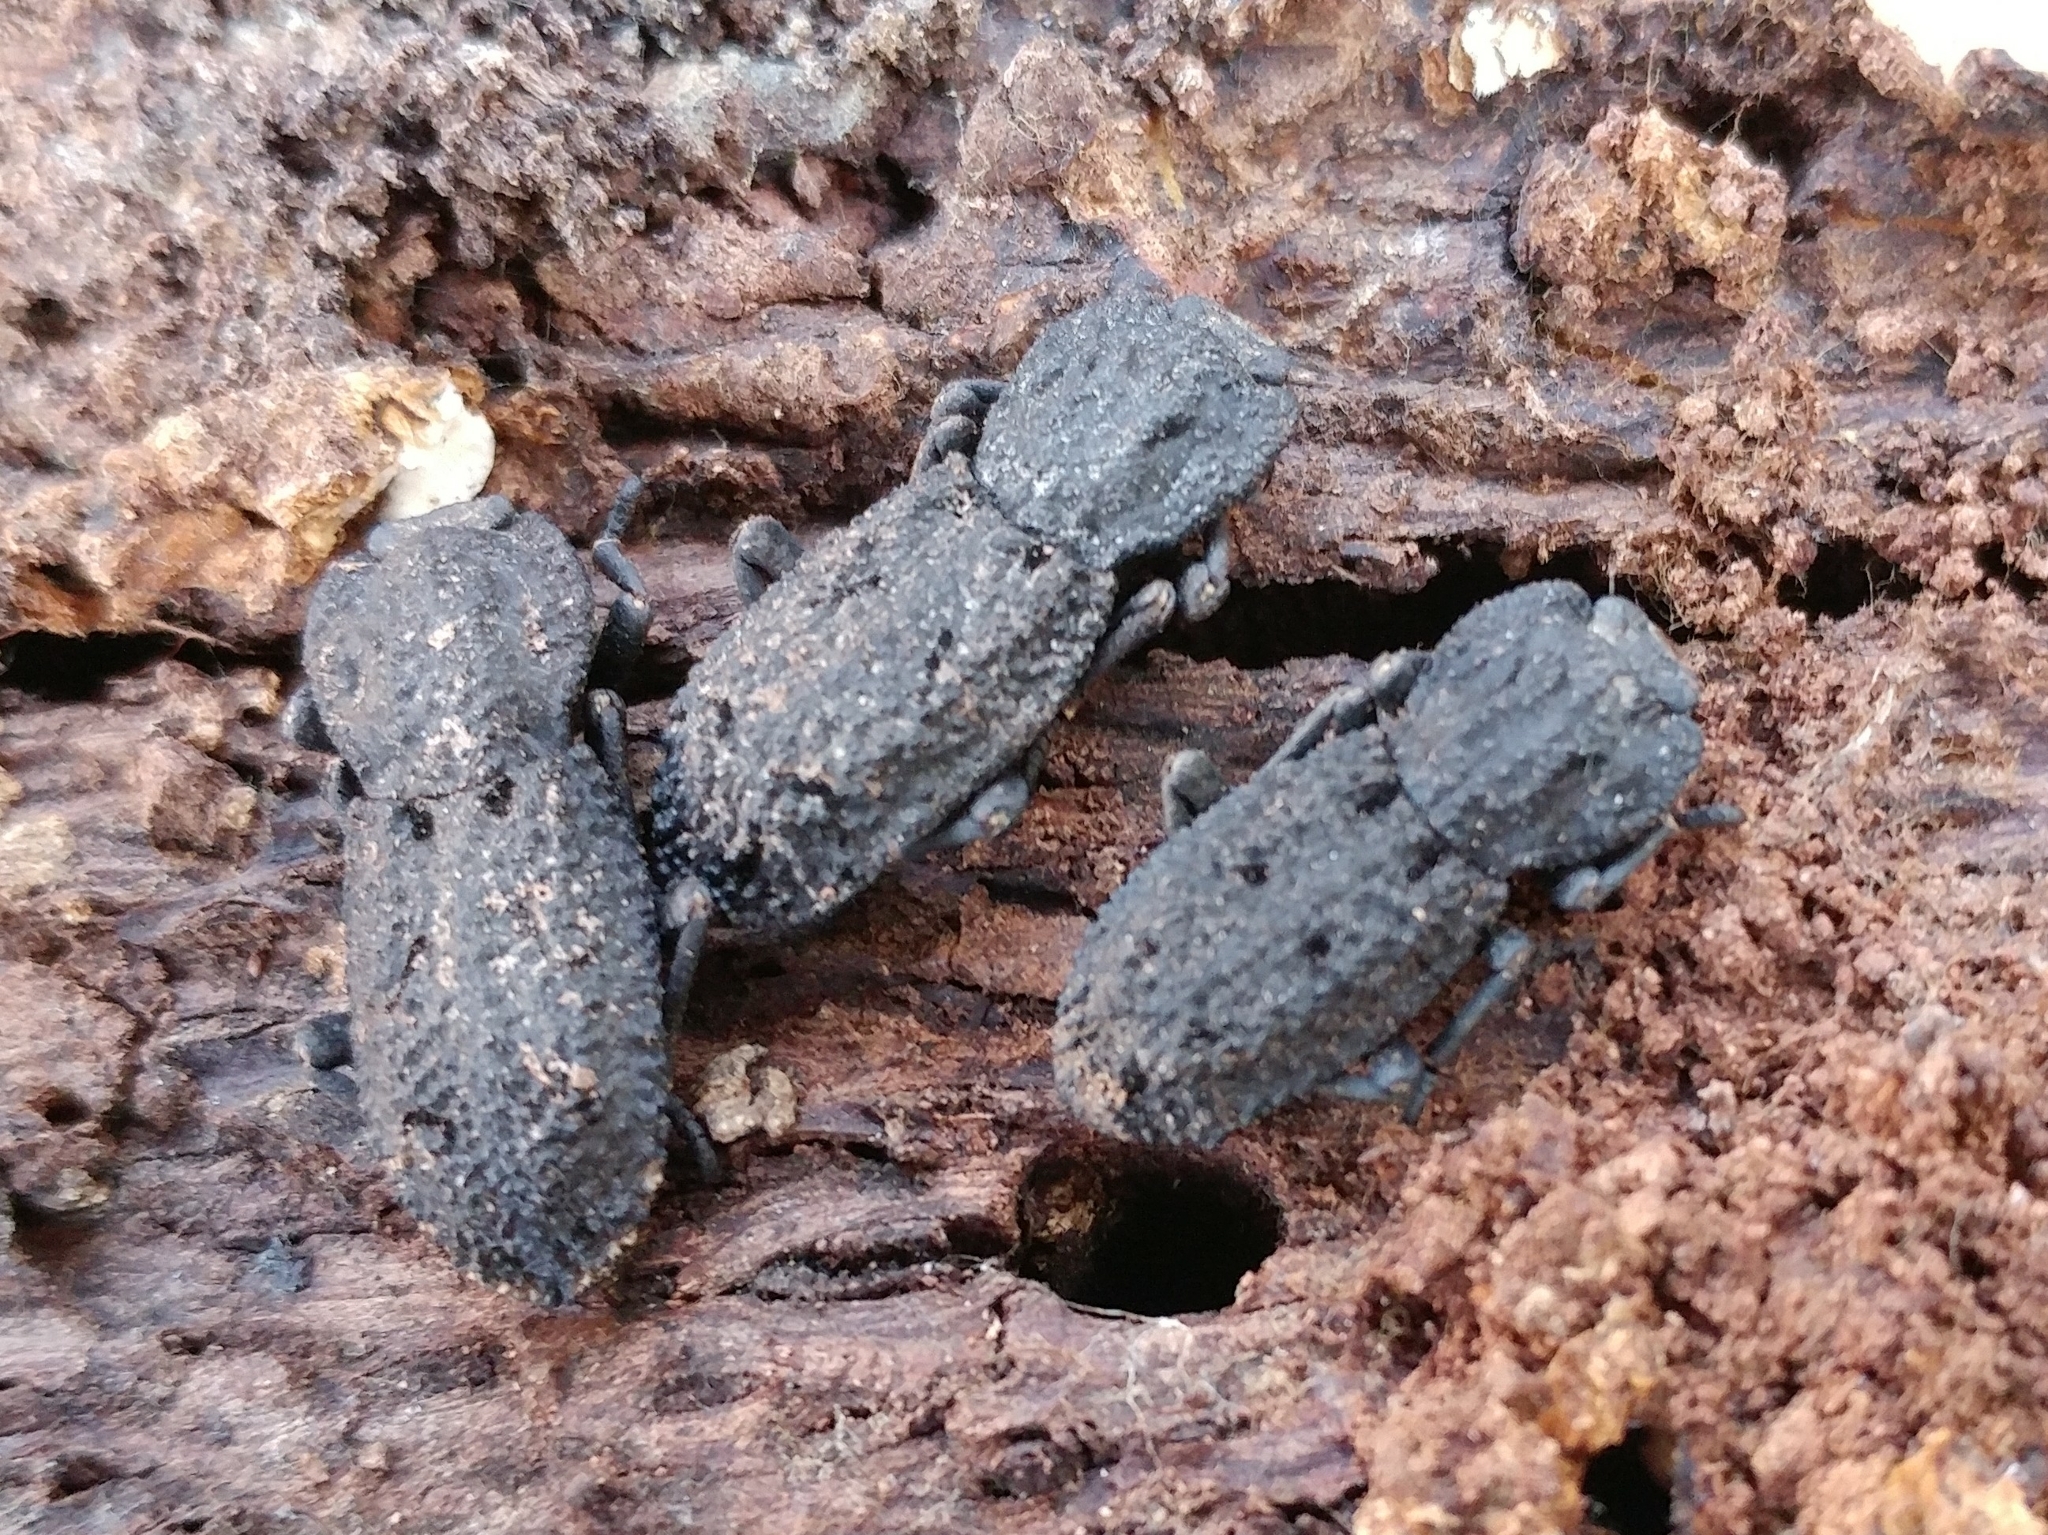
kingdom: Animalia
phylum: Arthropoda
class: Insecta
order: Coleoptera
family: Zopheridae
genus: Phloeodes
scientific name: Phloeodes diabolicus
